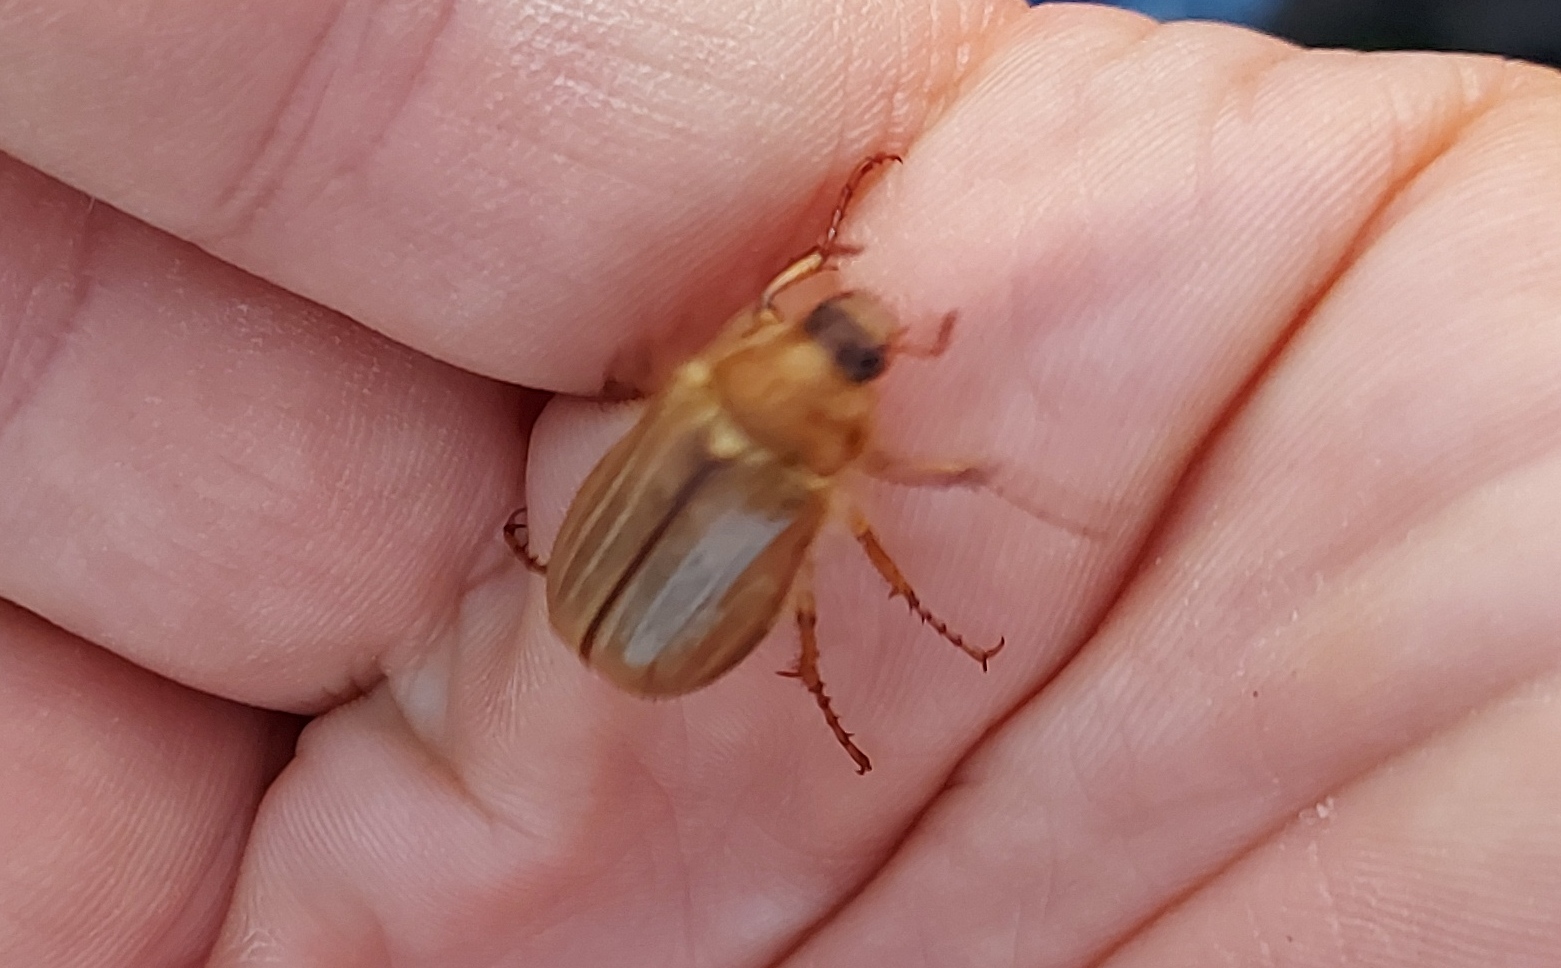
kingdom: Animalia
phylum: Arthropoda
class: Insecta
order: Coleoptera
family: Scarabaeidae
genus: Amphimallon
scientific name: Amphimallon solstitiale
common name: Summer chafer
